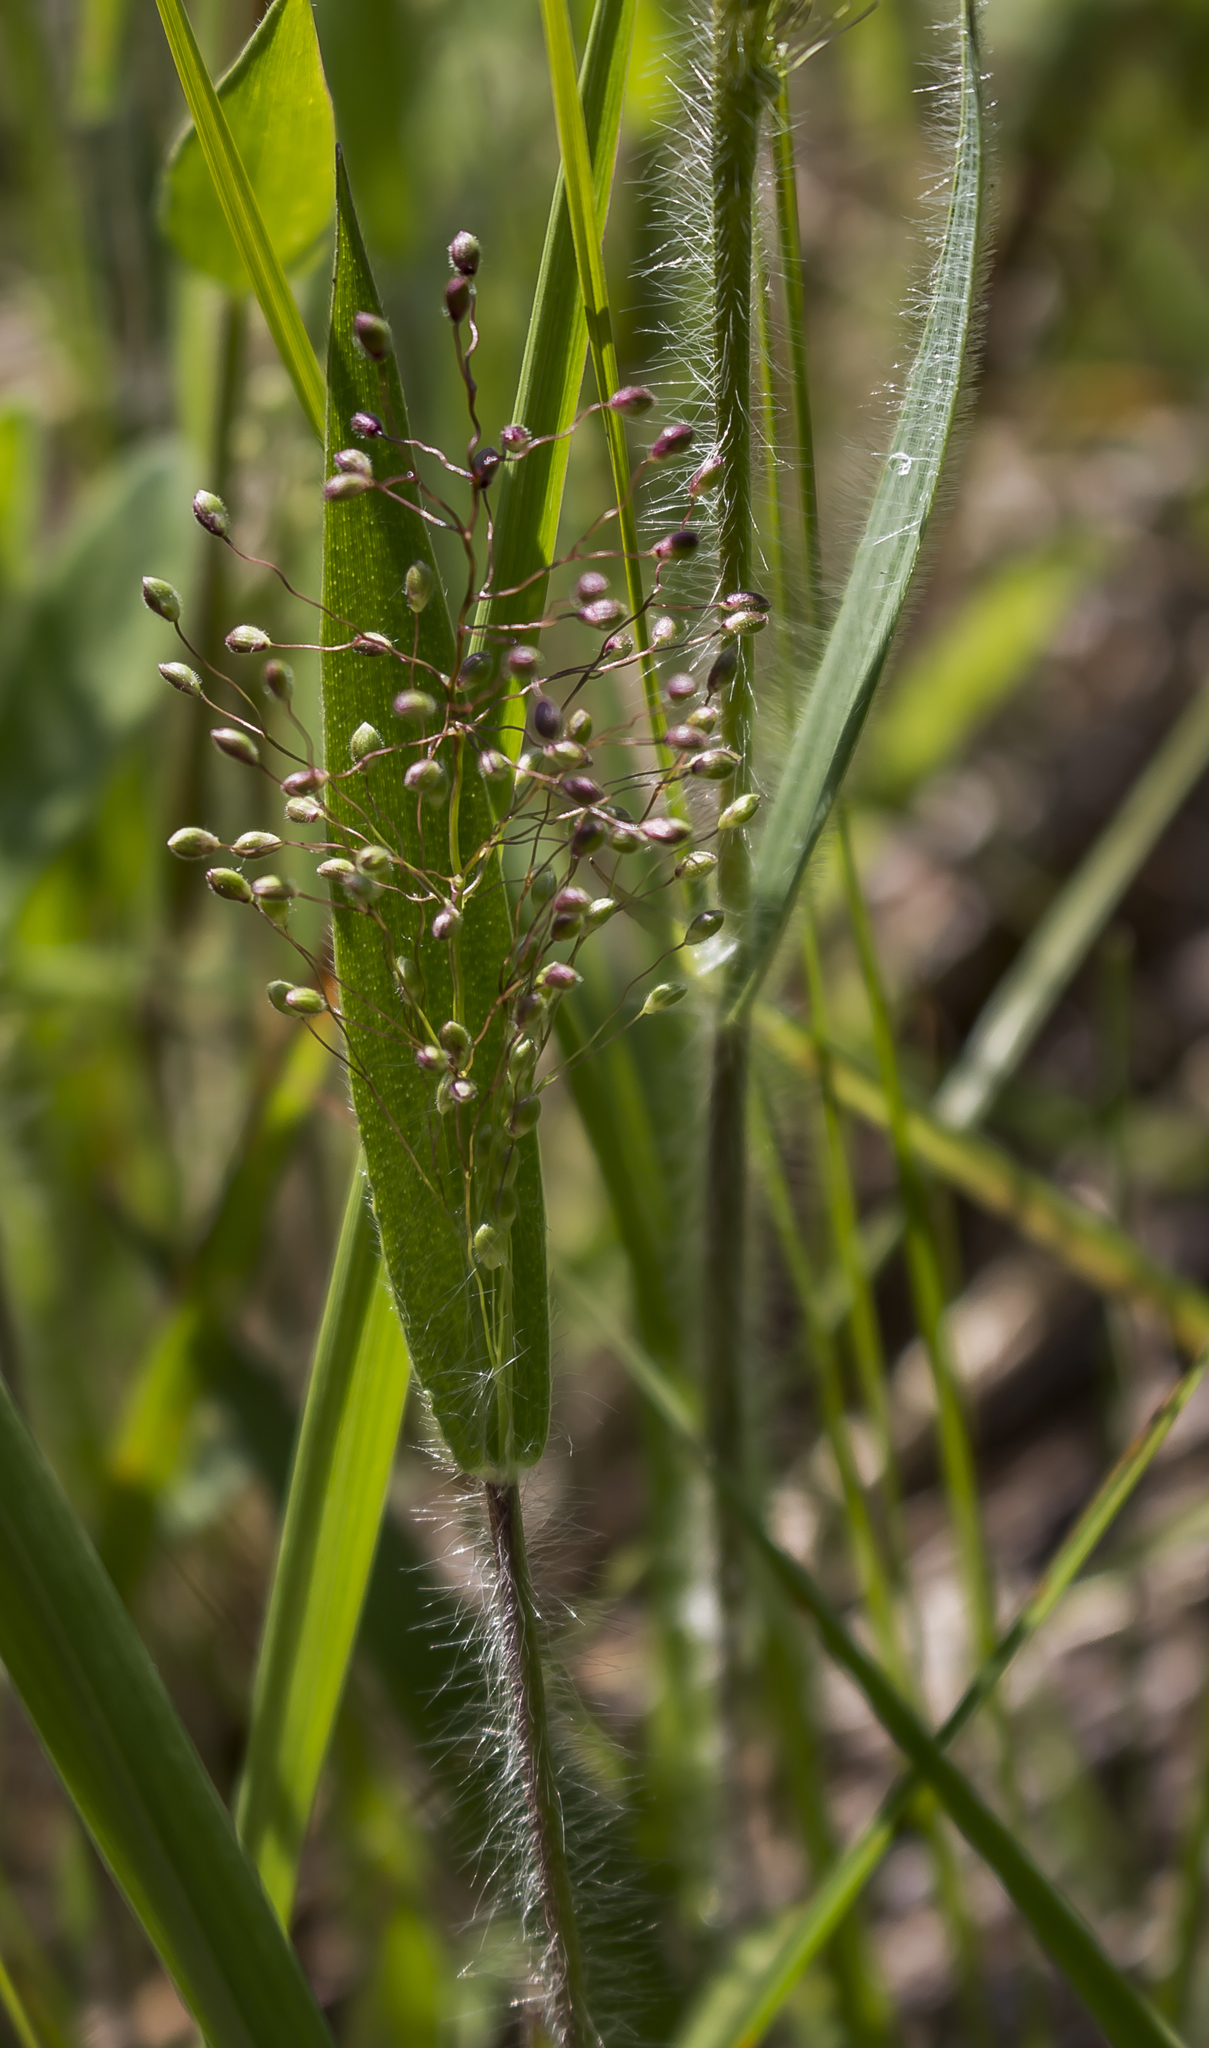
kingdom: Plantae
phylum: Tracheophyta
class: Liliopsida
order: Poales
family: Poaceae
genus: Dichanthelium
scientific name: Dichanthelium oligosanthes
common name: Few-anther obscuregrass
